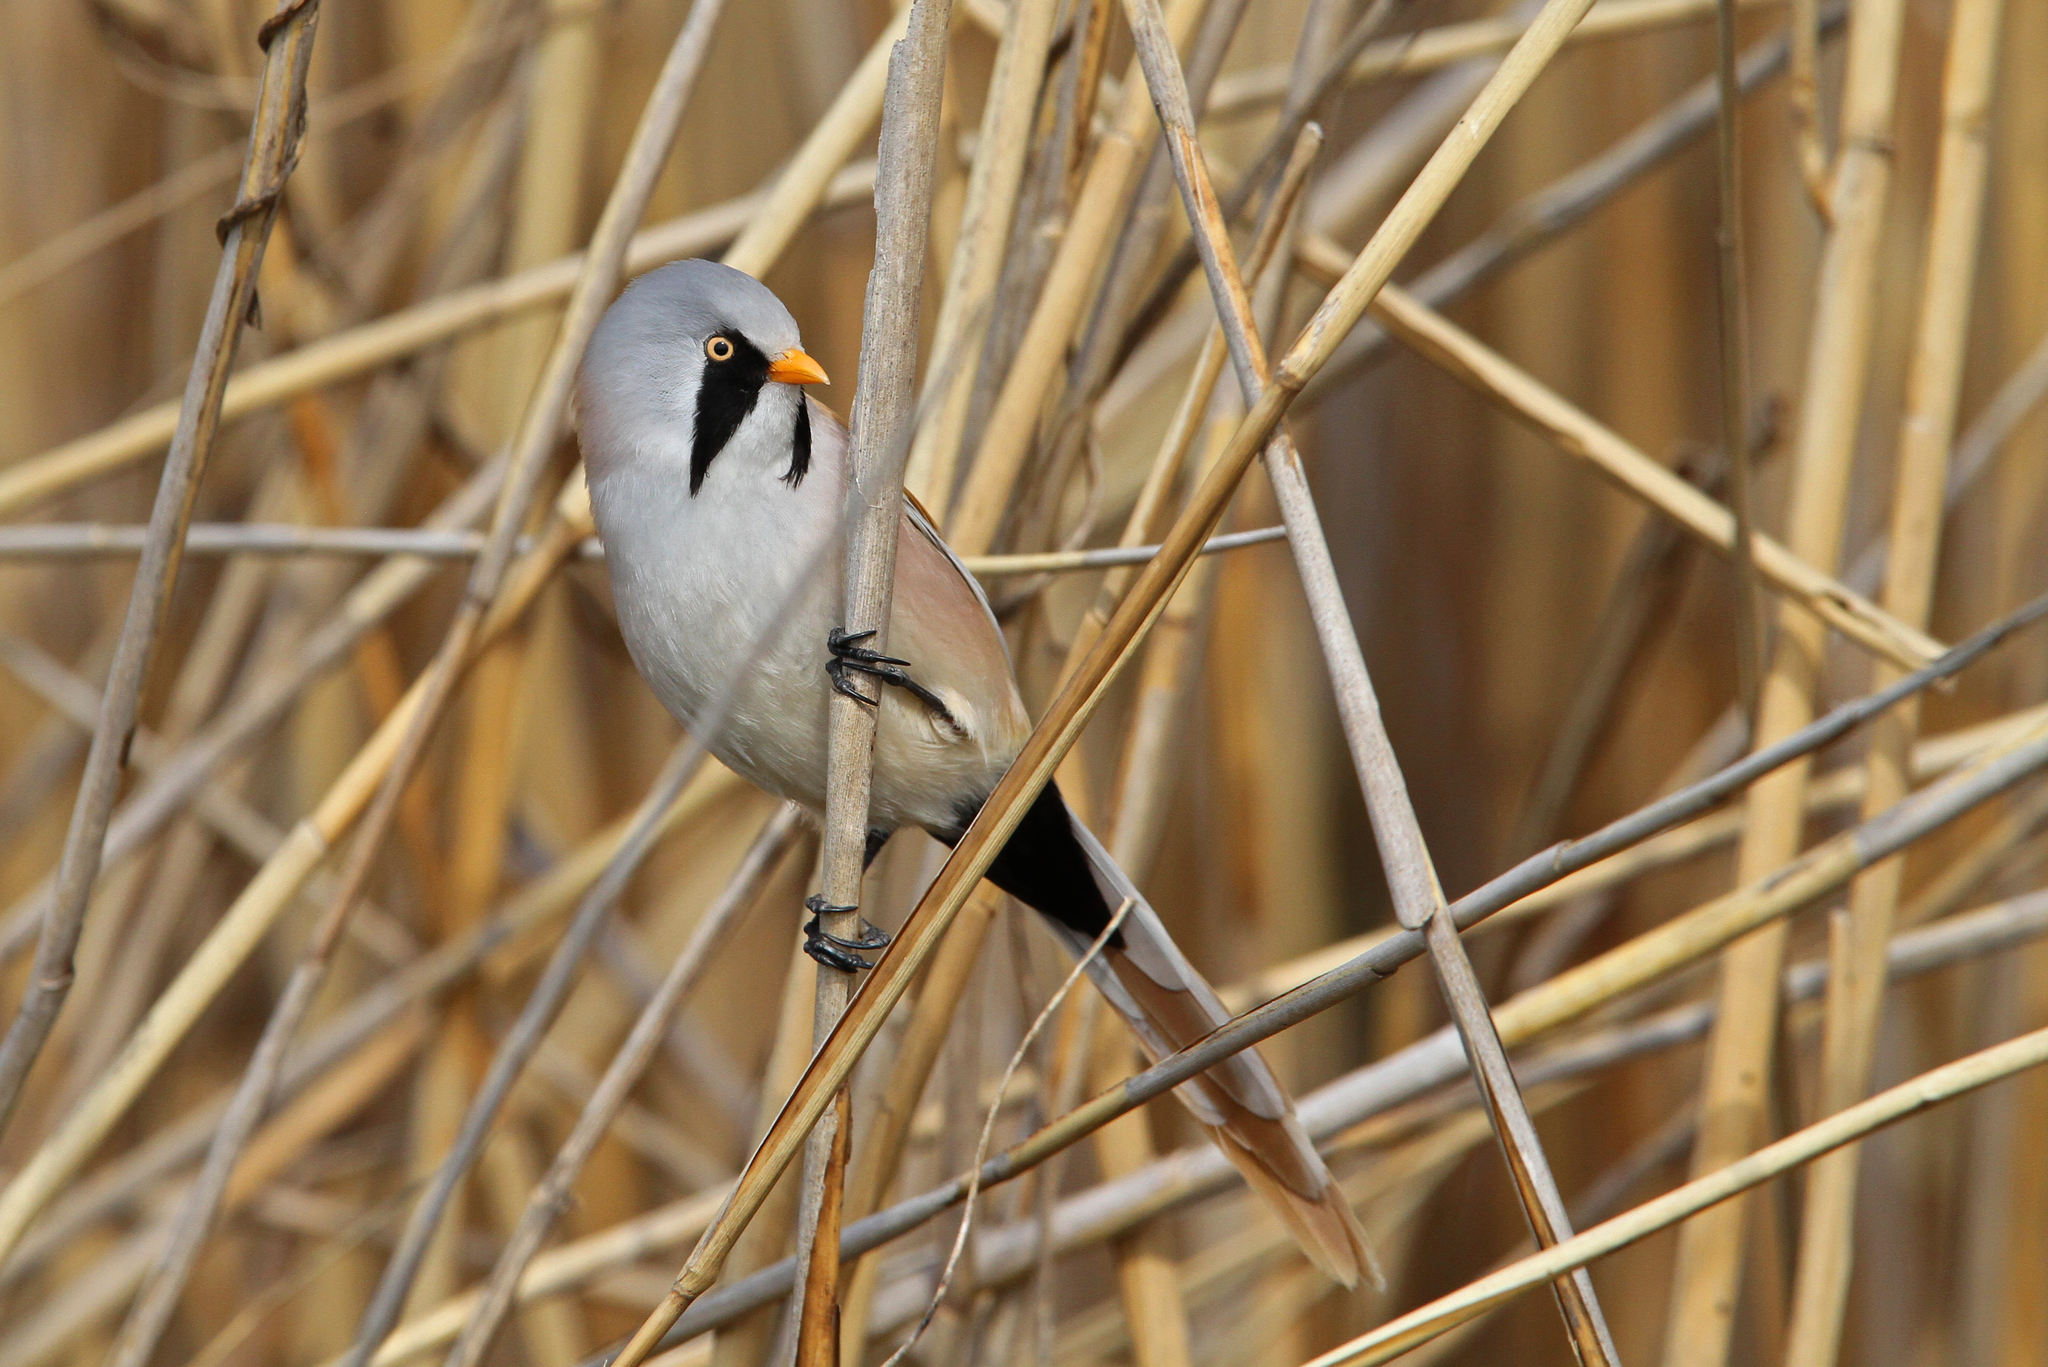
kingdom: Animalia
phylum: Chordata
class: Aves
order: Passeriformes
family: Panuridae
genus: Panurus
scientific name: Panurus biarmicus
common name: Bearded reedling
